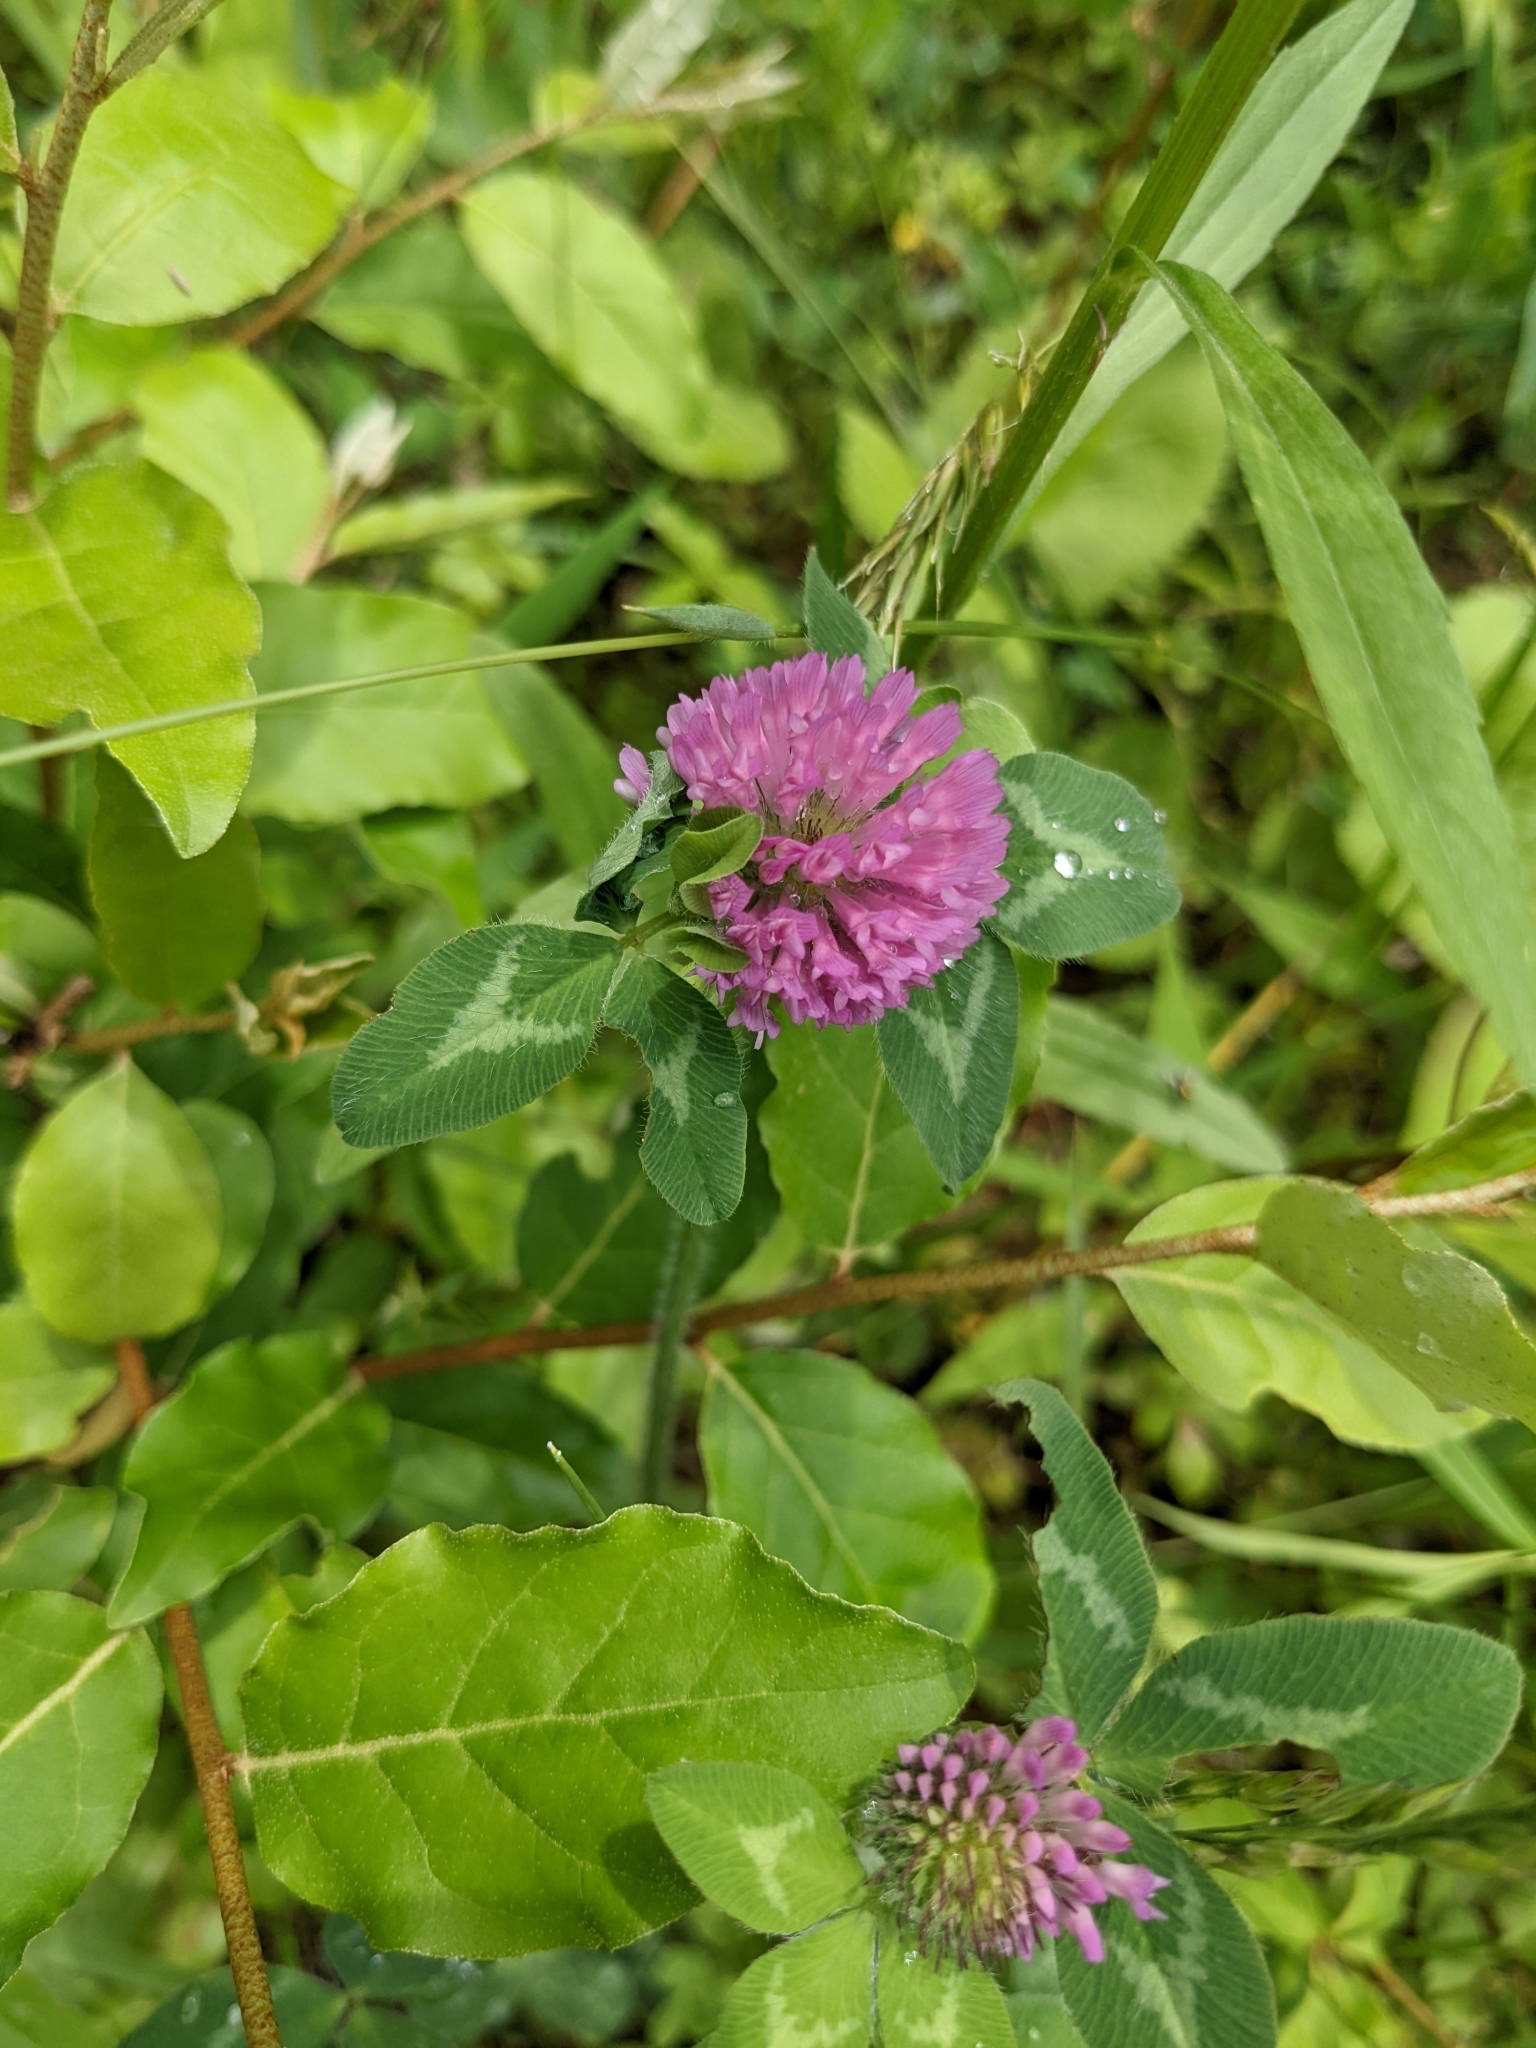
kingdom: Plantae
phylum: Tracheophyta
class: Magnoliopsida
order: Fabales
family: Fabaceae
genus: Trifolium
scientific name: Trifolium pratense
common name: Red clover
